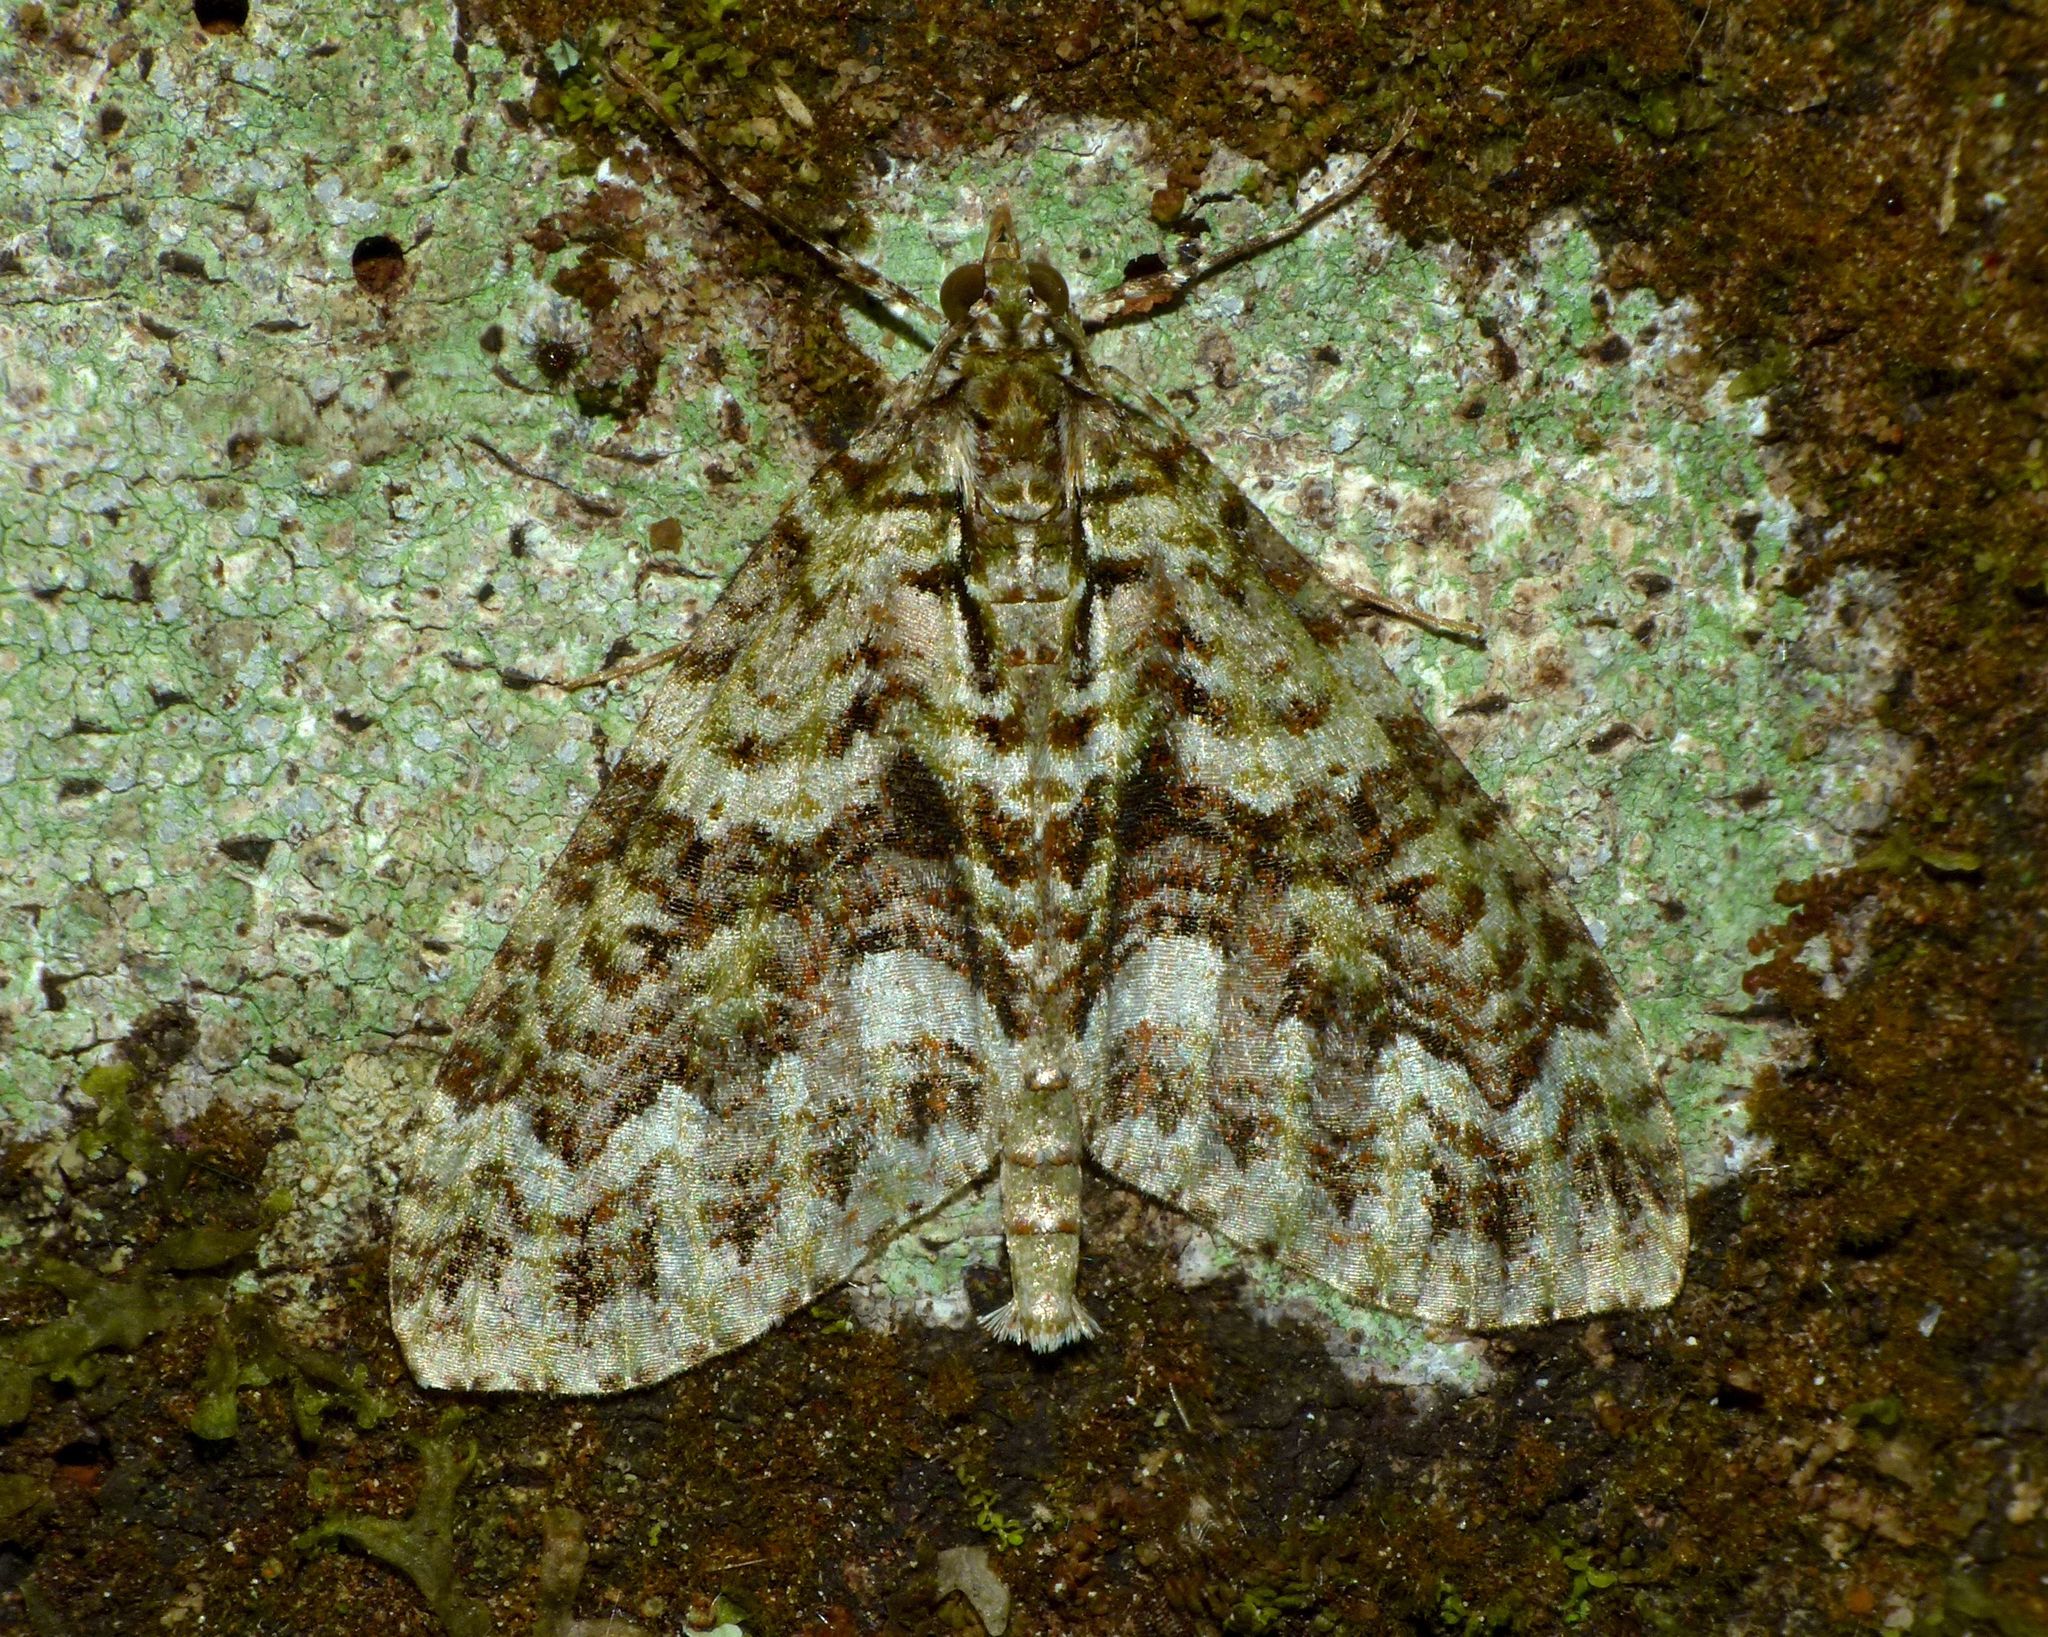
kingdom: Animalia
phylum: Arthropoda
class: Insecta
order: Lepidoptera
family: Geometridae
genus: Tatosoma
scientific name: Tatosoma agrionata
